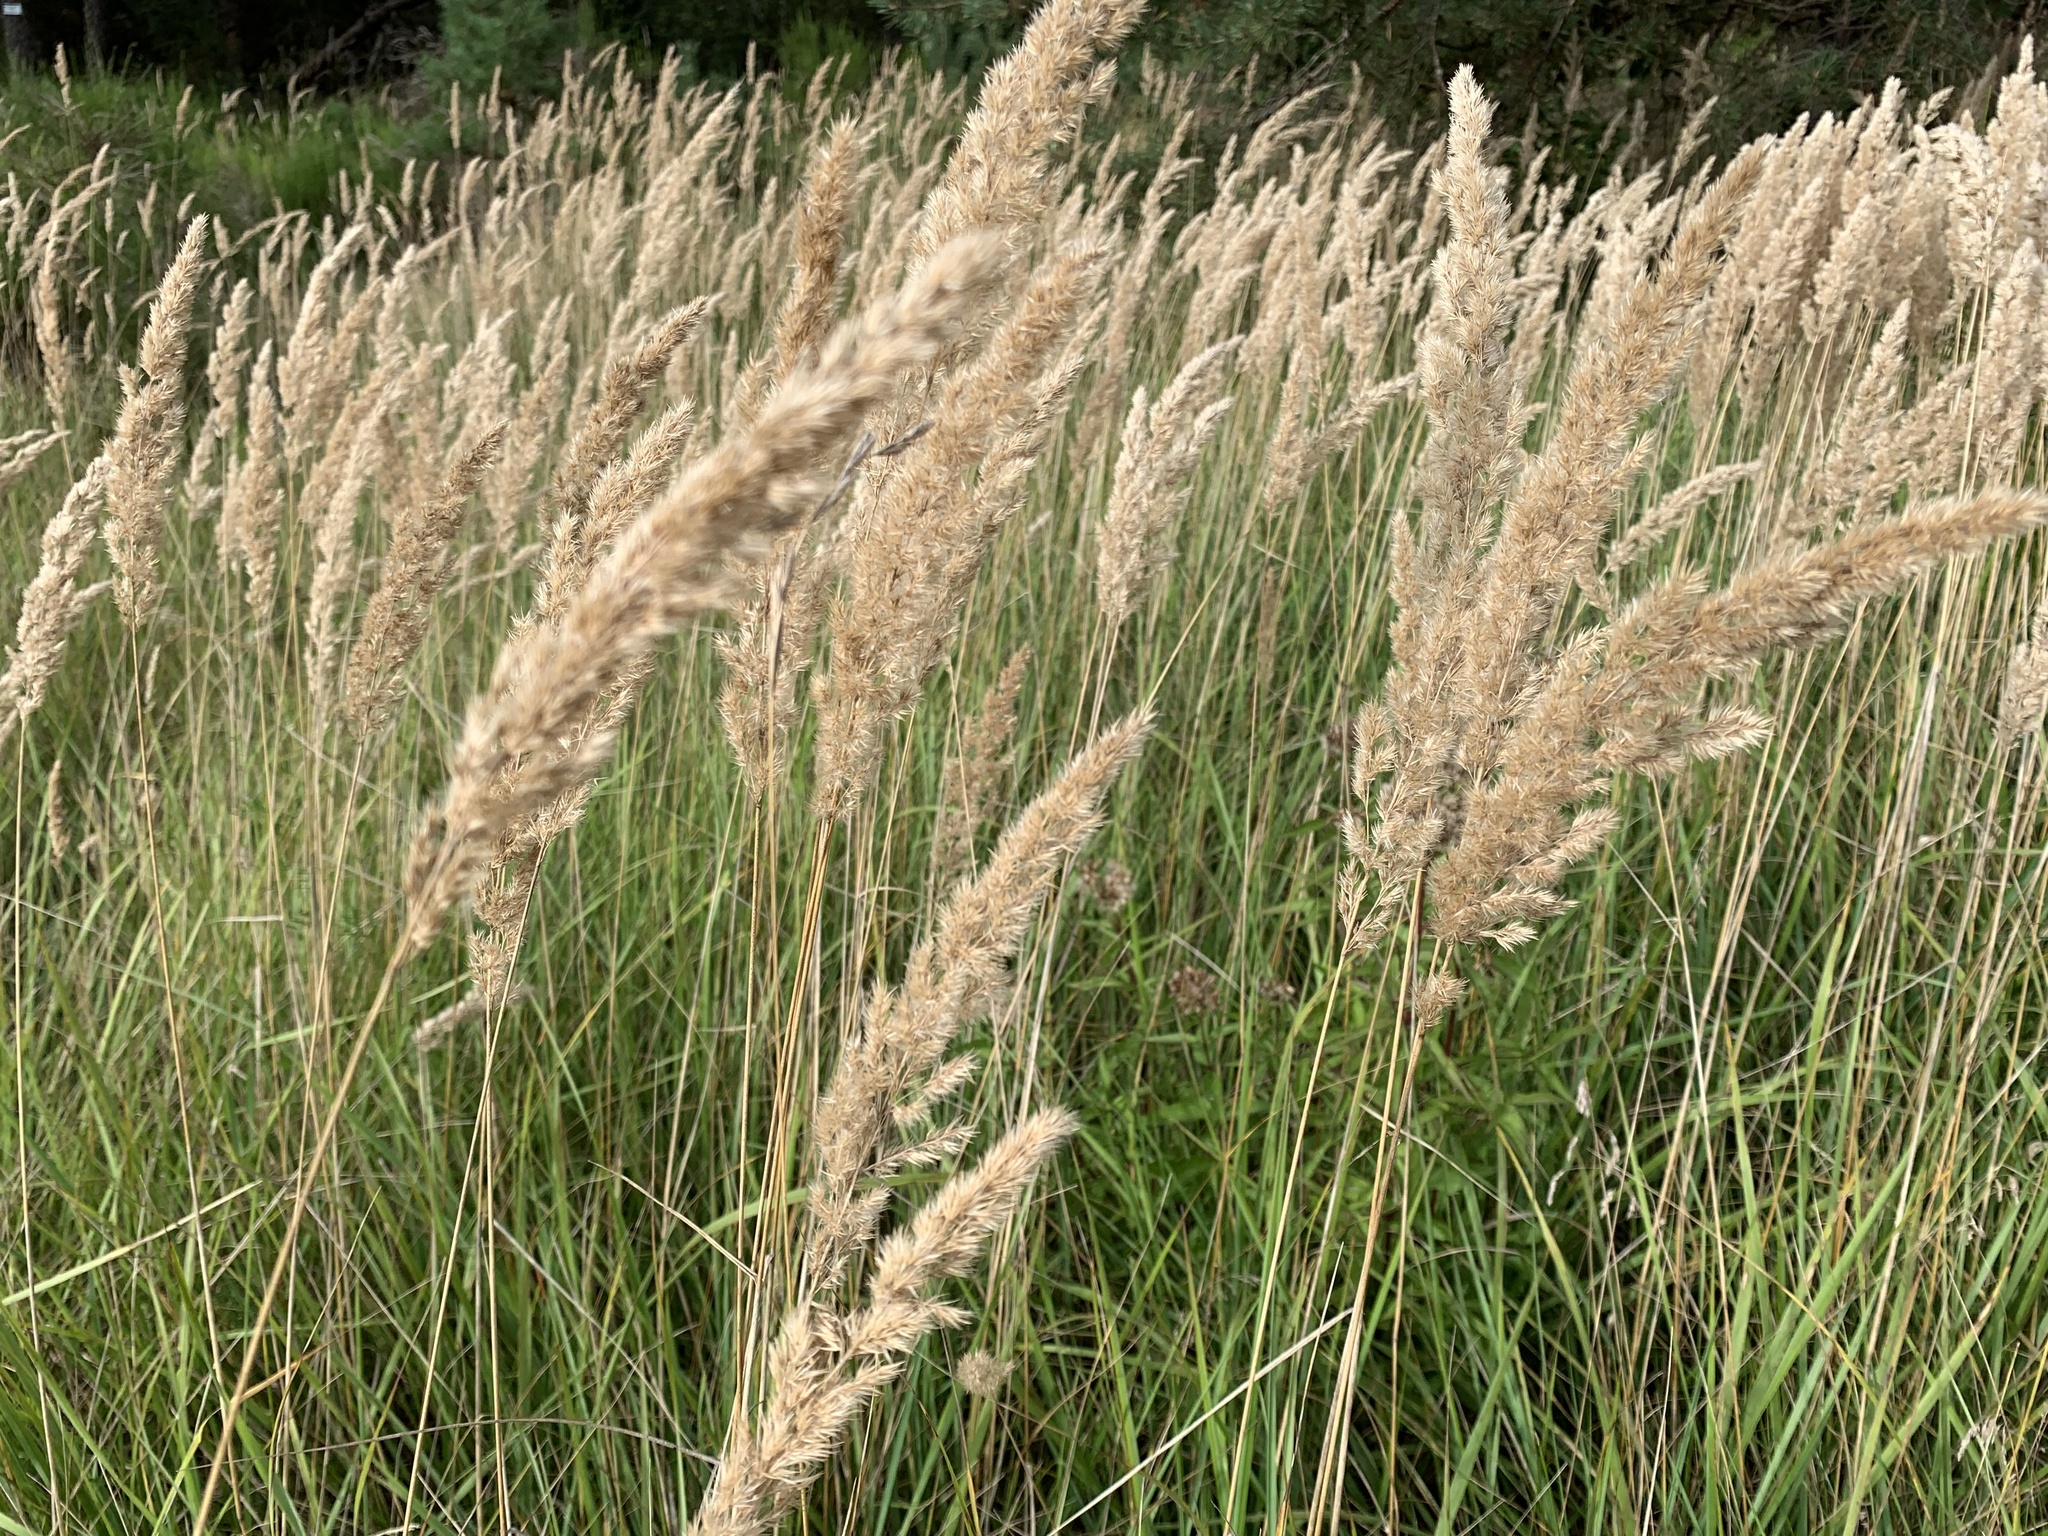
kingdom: Plantae
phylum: Tracheophyta
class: Liliopsida
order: Poales
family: Poaceae
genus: Calamagrostis
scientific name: Calamagrostis epigejos
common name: Wood small-reed
